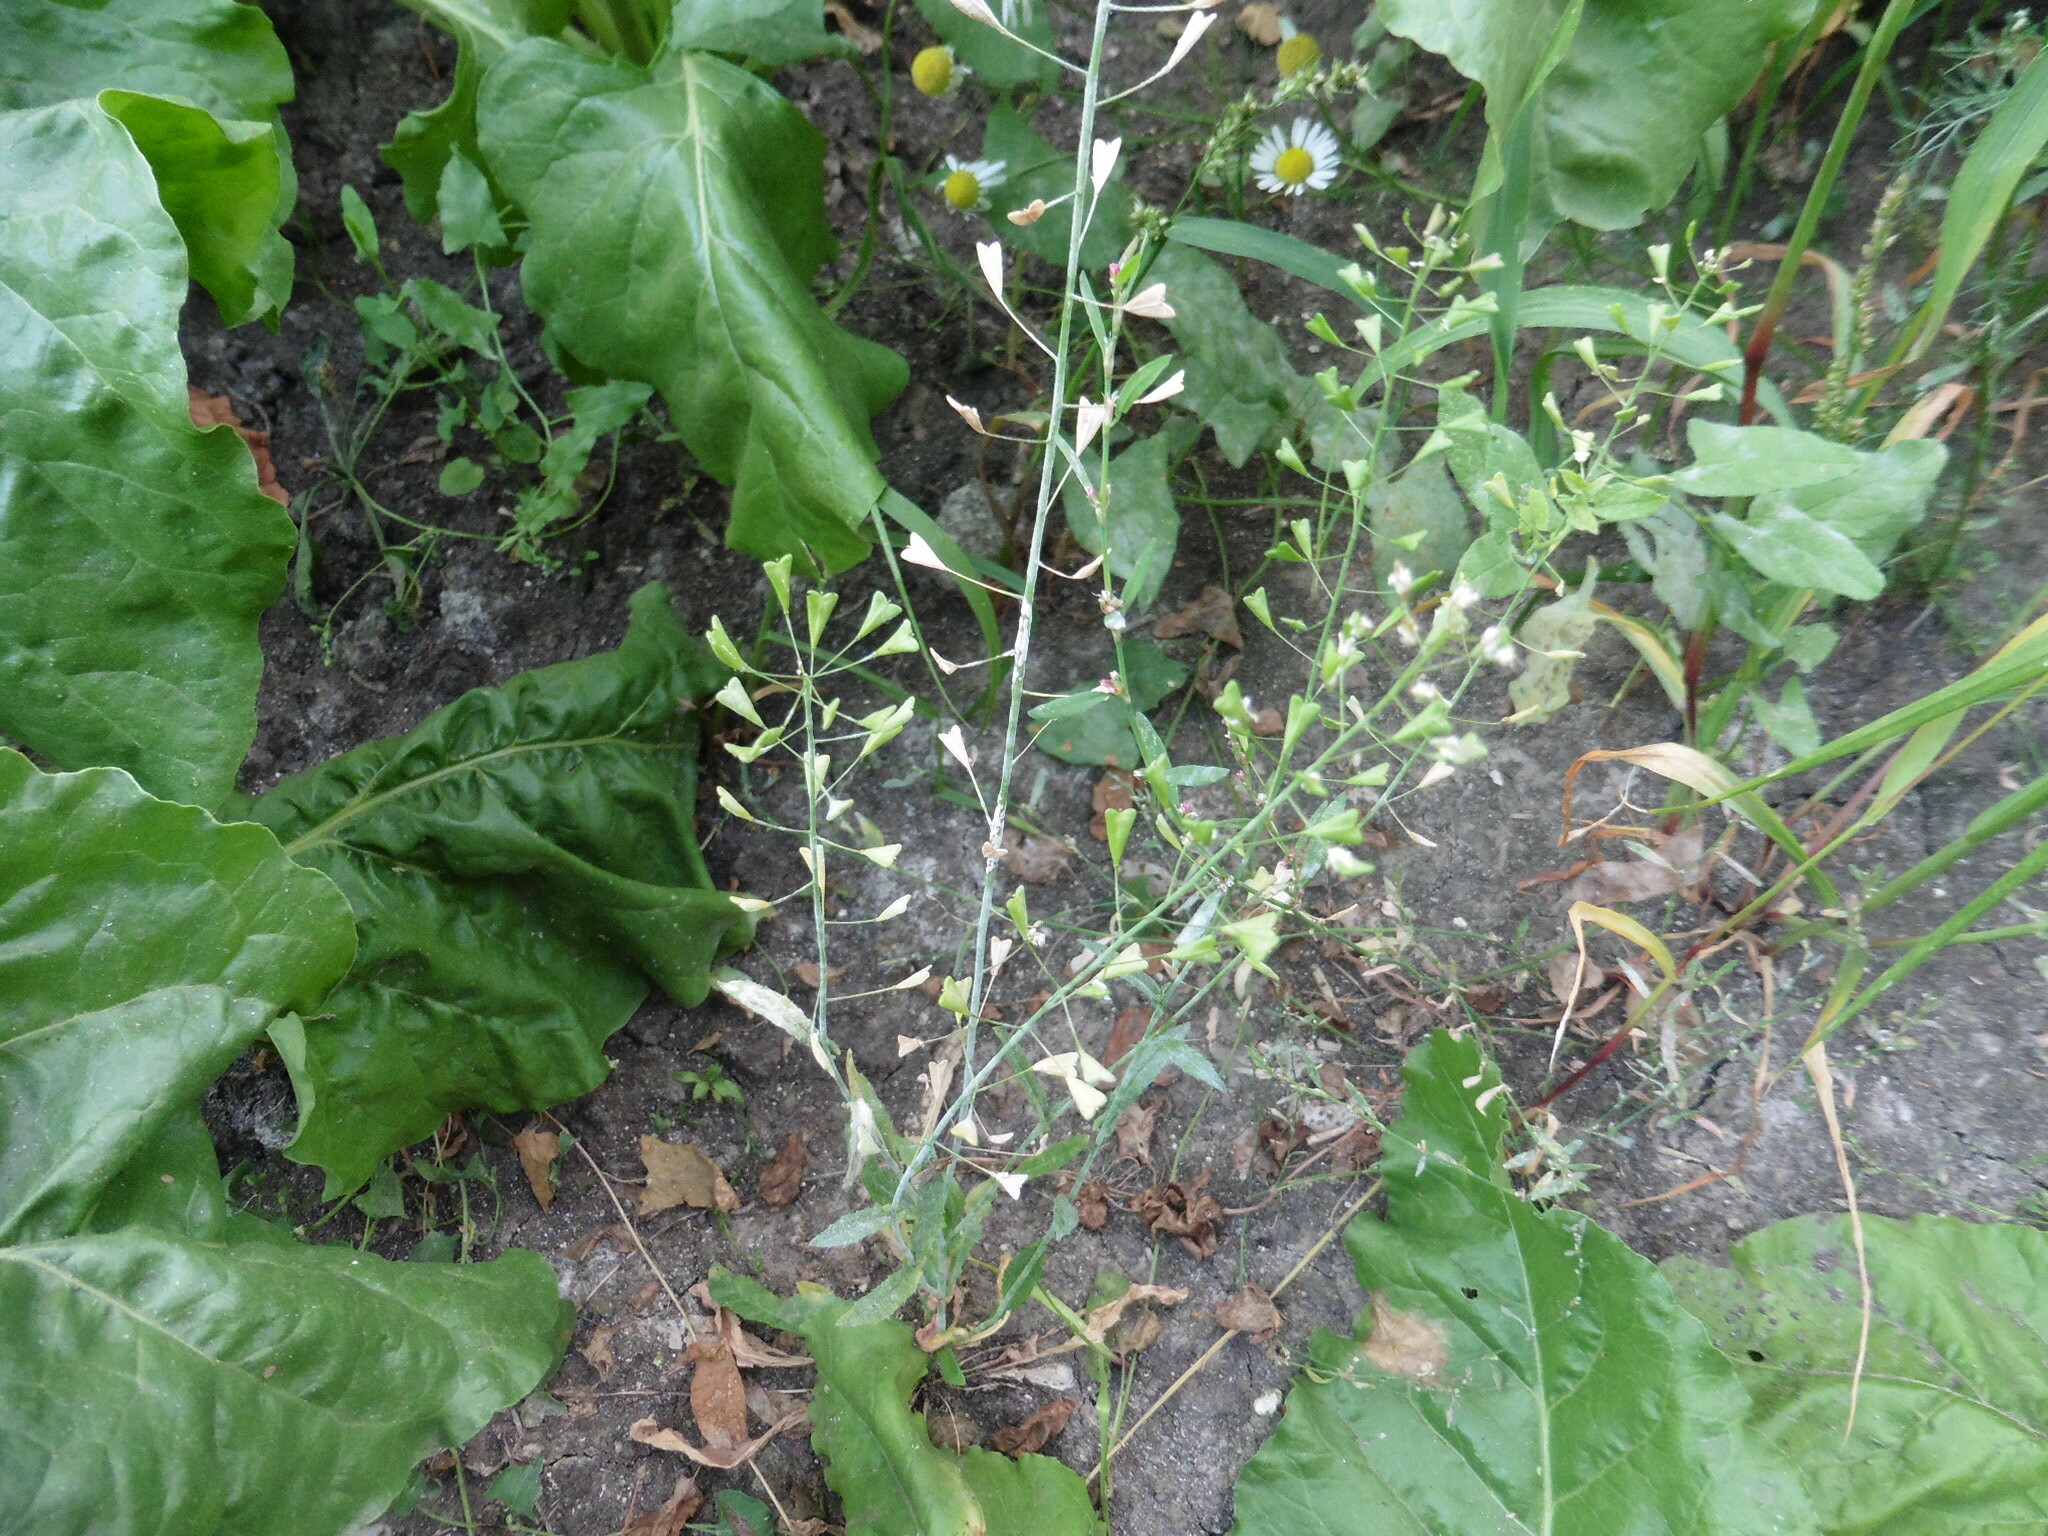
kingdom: Plantae
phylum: Tracheophyta
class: Magnoliopsida
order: Brassicales
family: Brassicaceae
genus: Capsella
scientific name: Capsella bursa-pastoris
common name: Shepherd's purse
